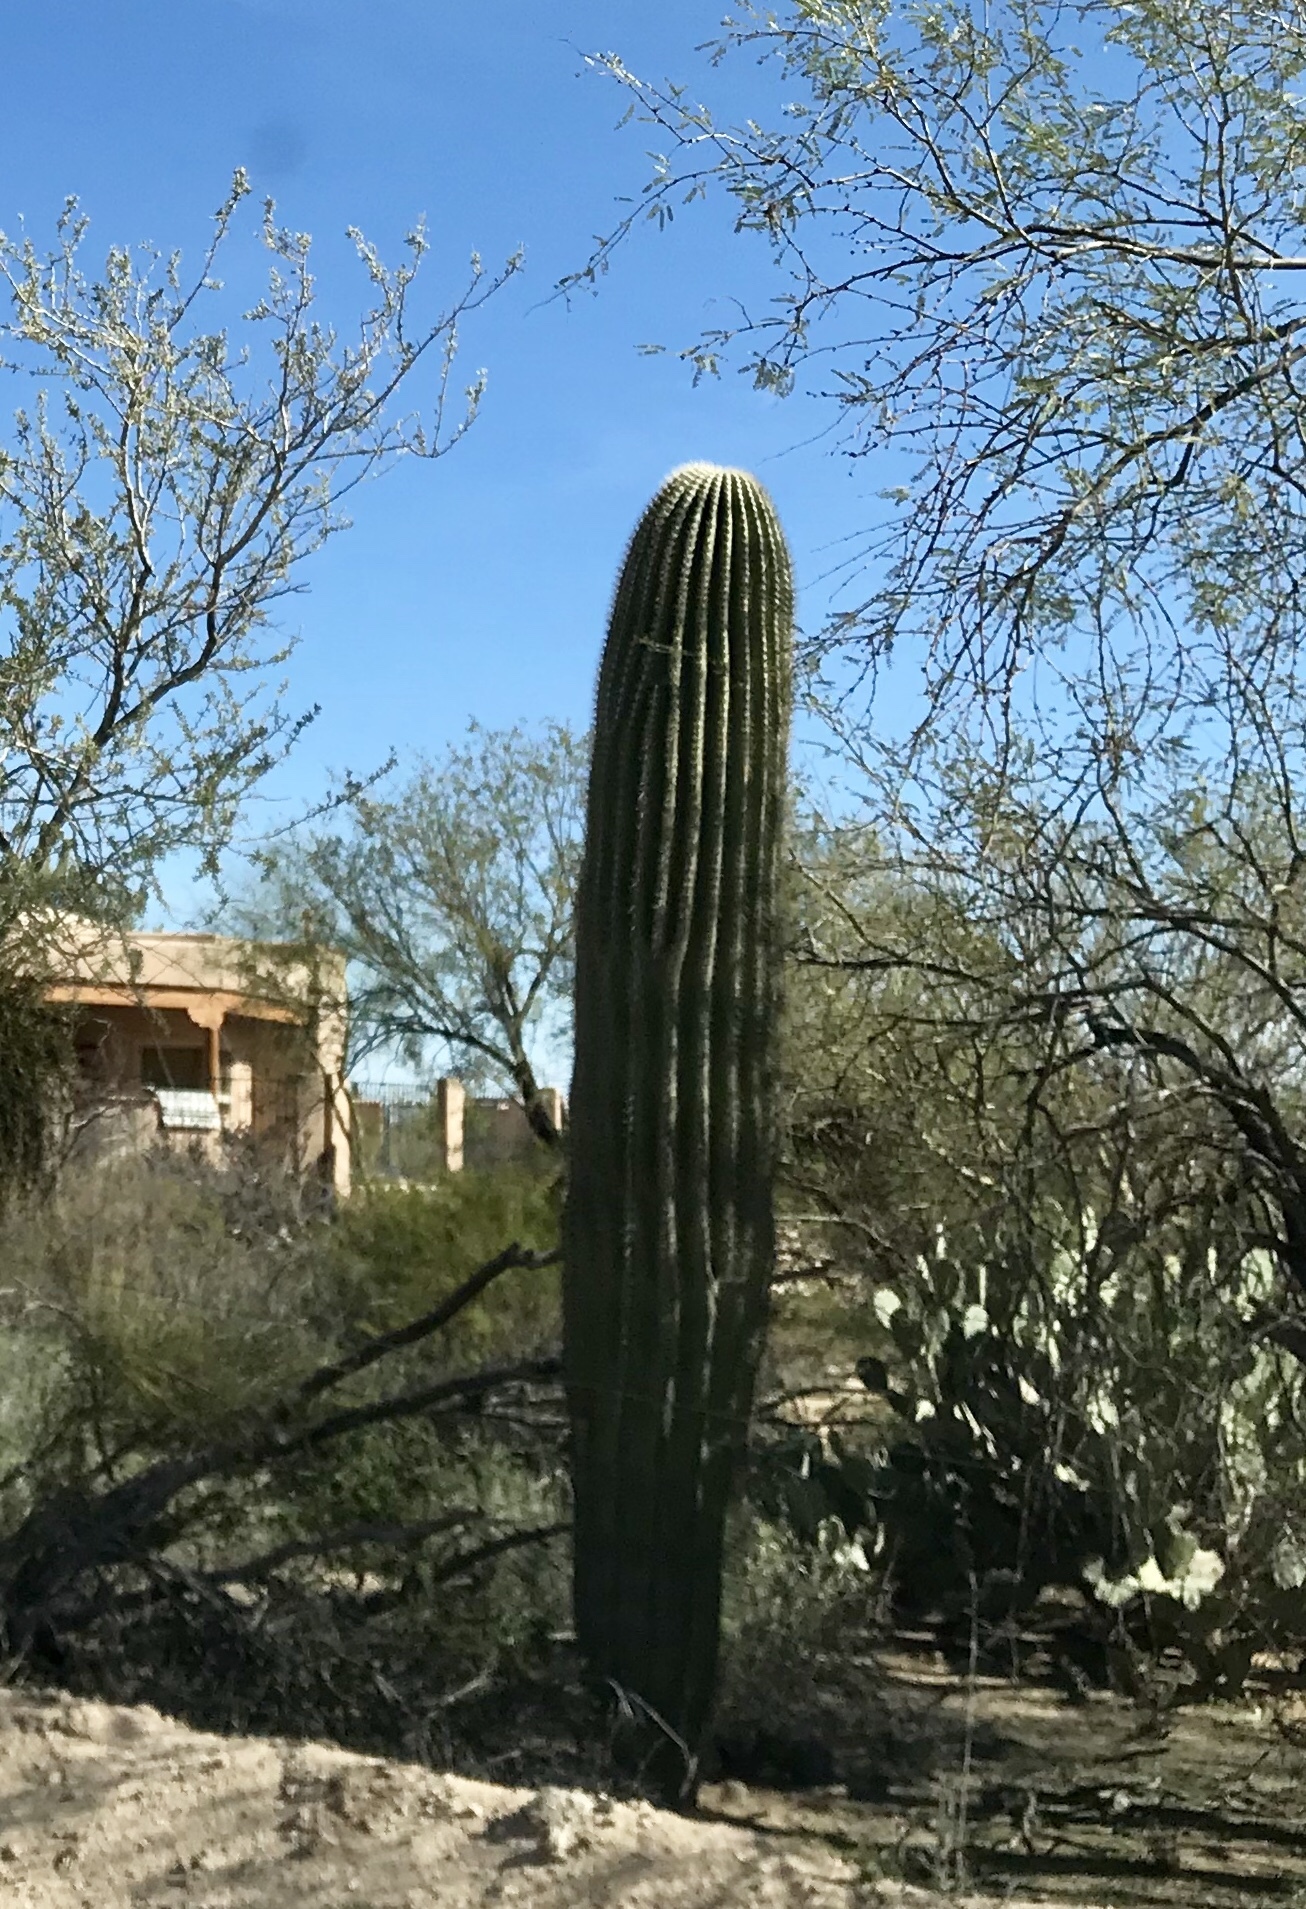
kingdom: Plantae
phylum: Tracheophyta
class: Magnoliopsida
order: Caryophyllales
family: Cactaceae
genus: Carnegiea
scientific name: Carnegiea gigantea
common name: Saguaro
